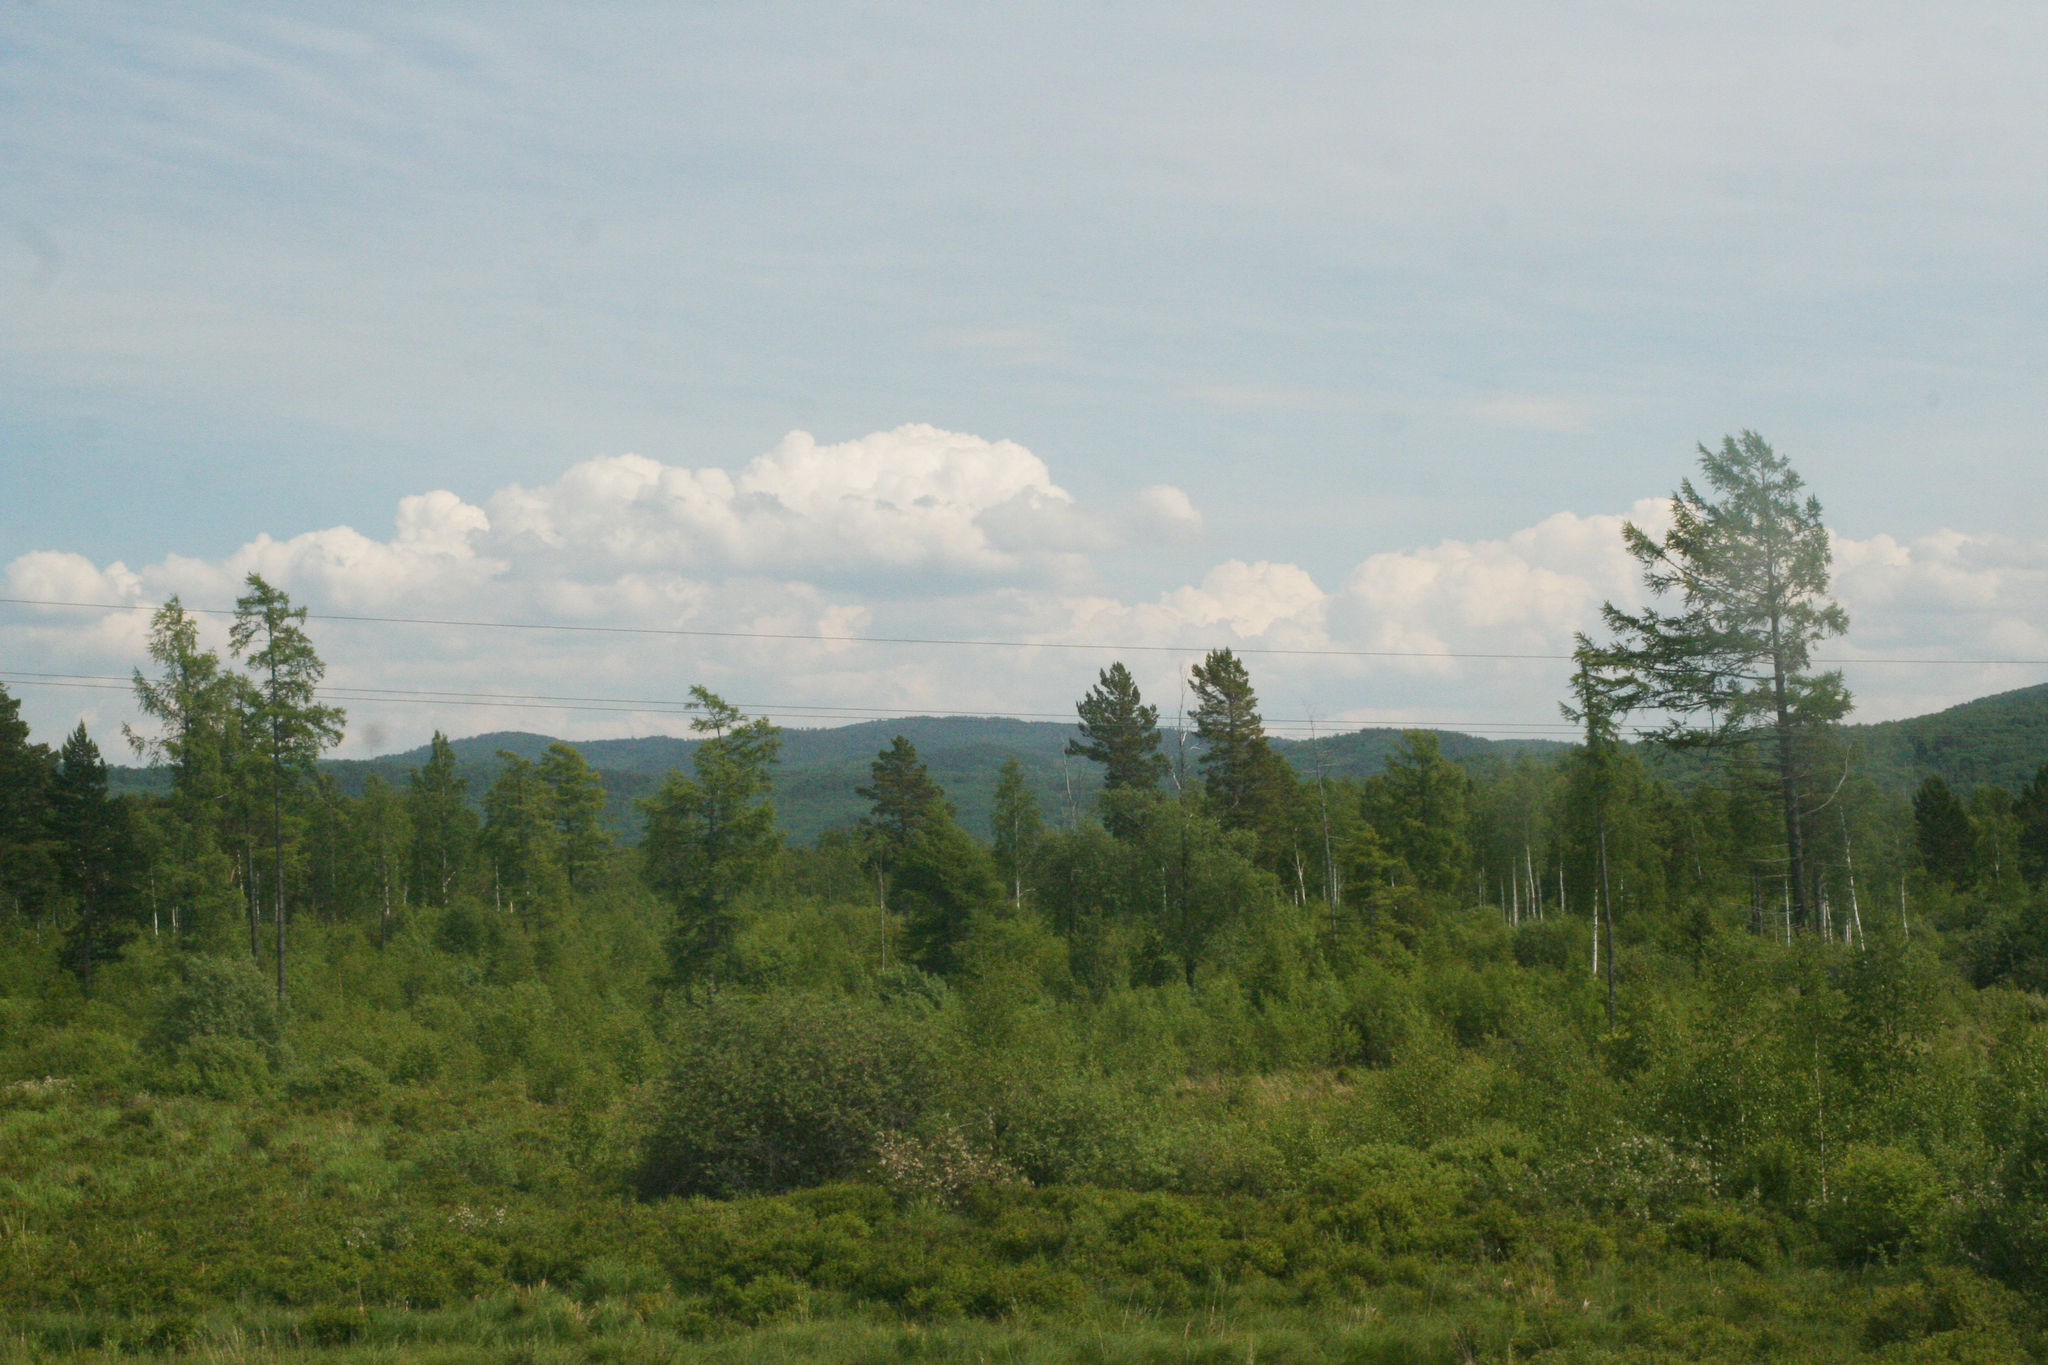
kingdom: Plantae
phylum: Tracheophyta
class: Pinopsida
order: Pinales
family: Pinaceae
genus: Larix
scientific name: Larix sibirica
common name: Siberian larch
